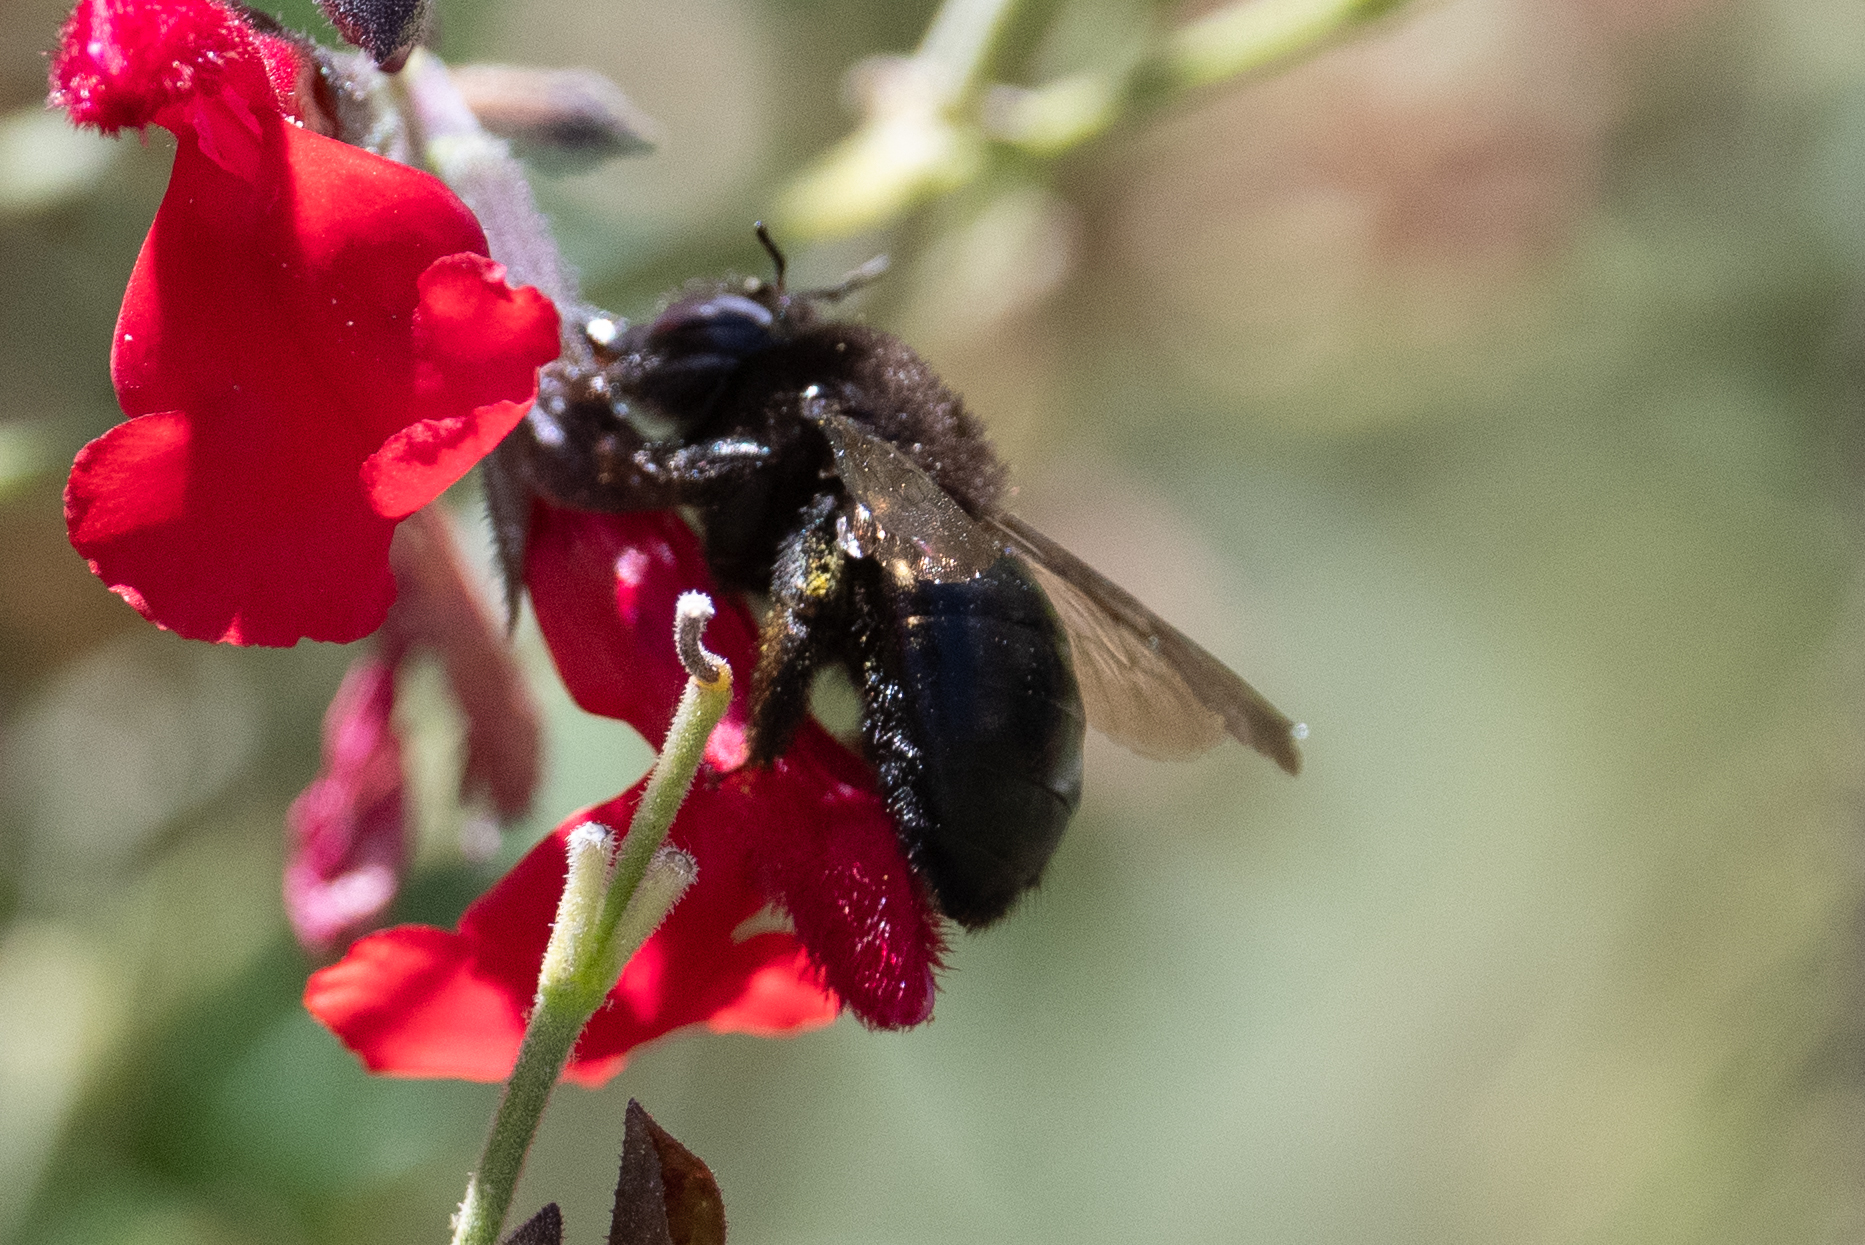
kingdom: Animalia
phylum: Arthropoda
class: Insecta
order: Hymenoptera
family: Apidae
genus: Xylocopa
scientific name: Xylocopa tabaniformis
